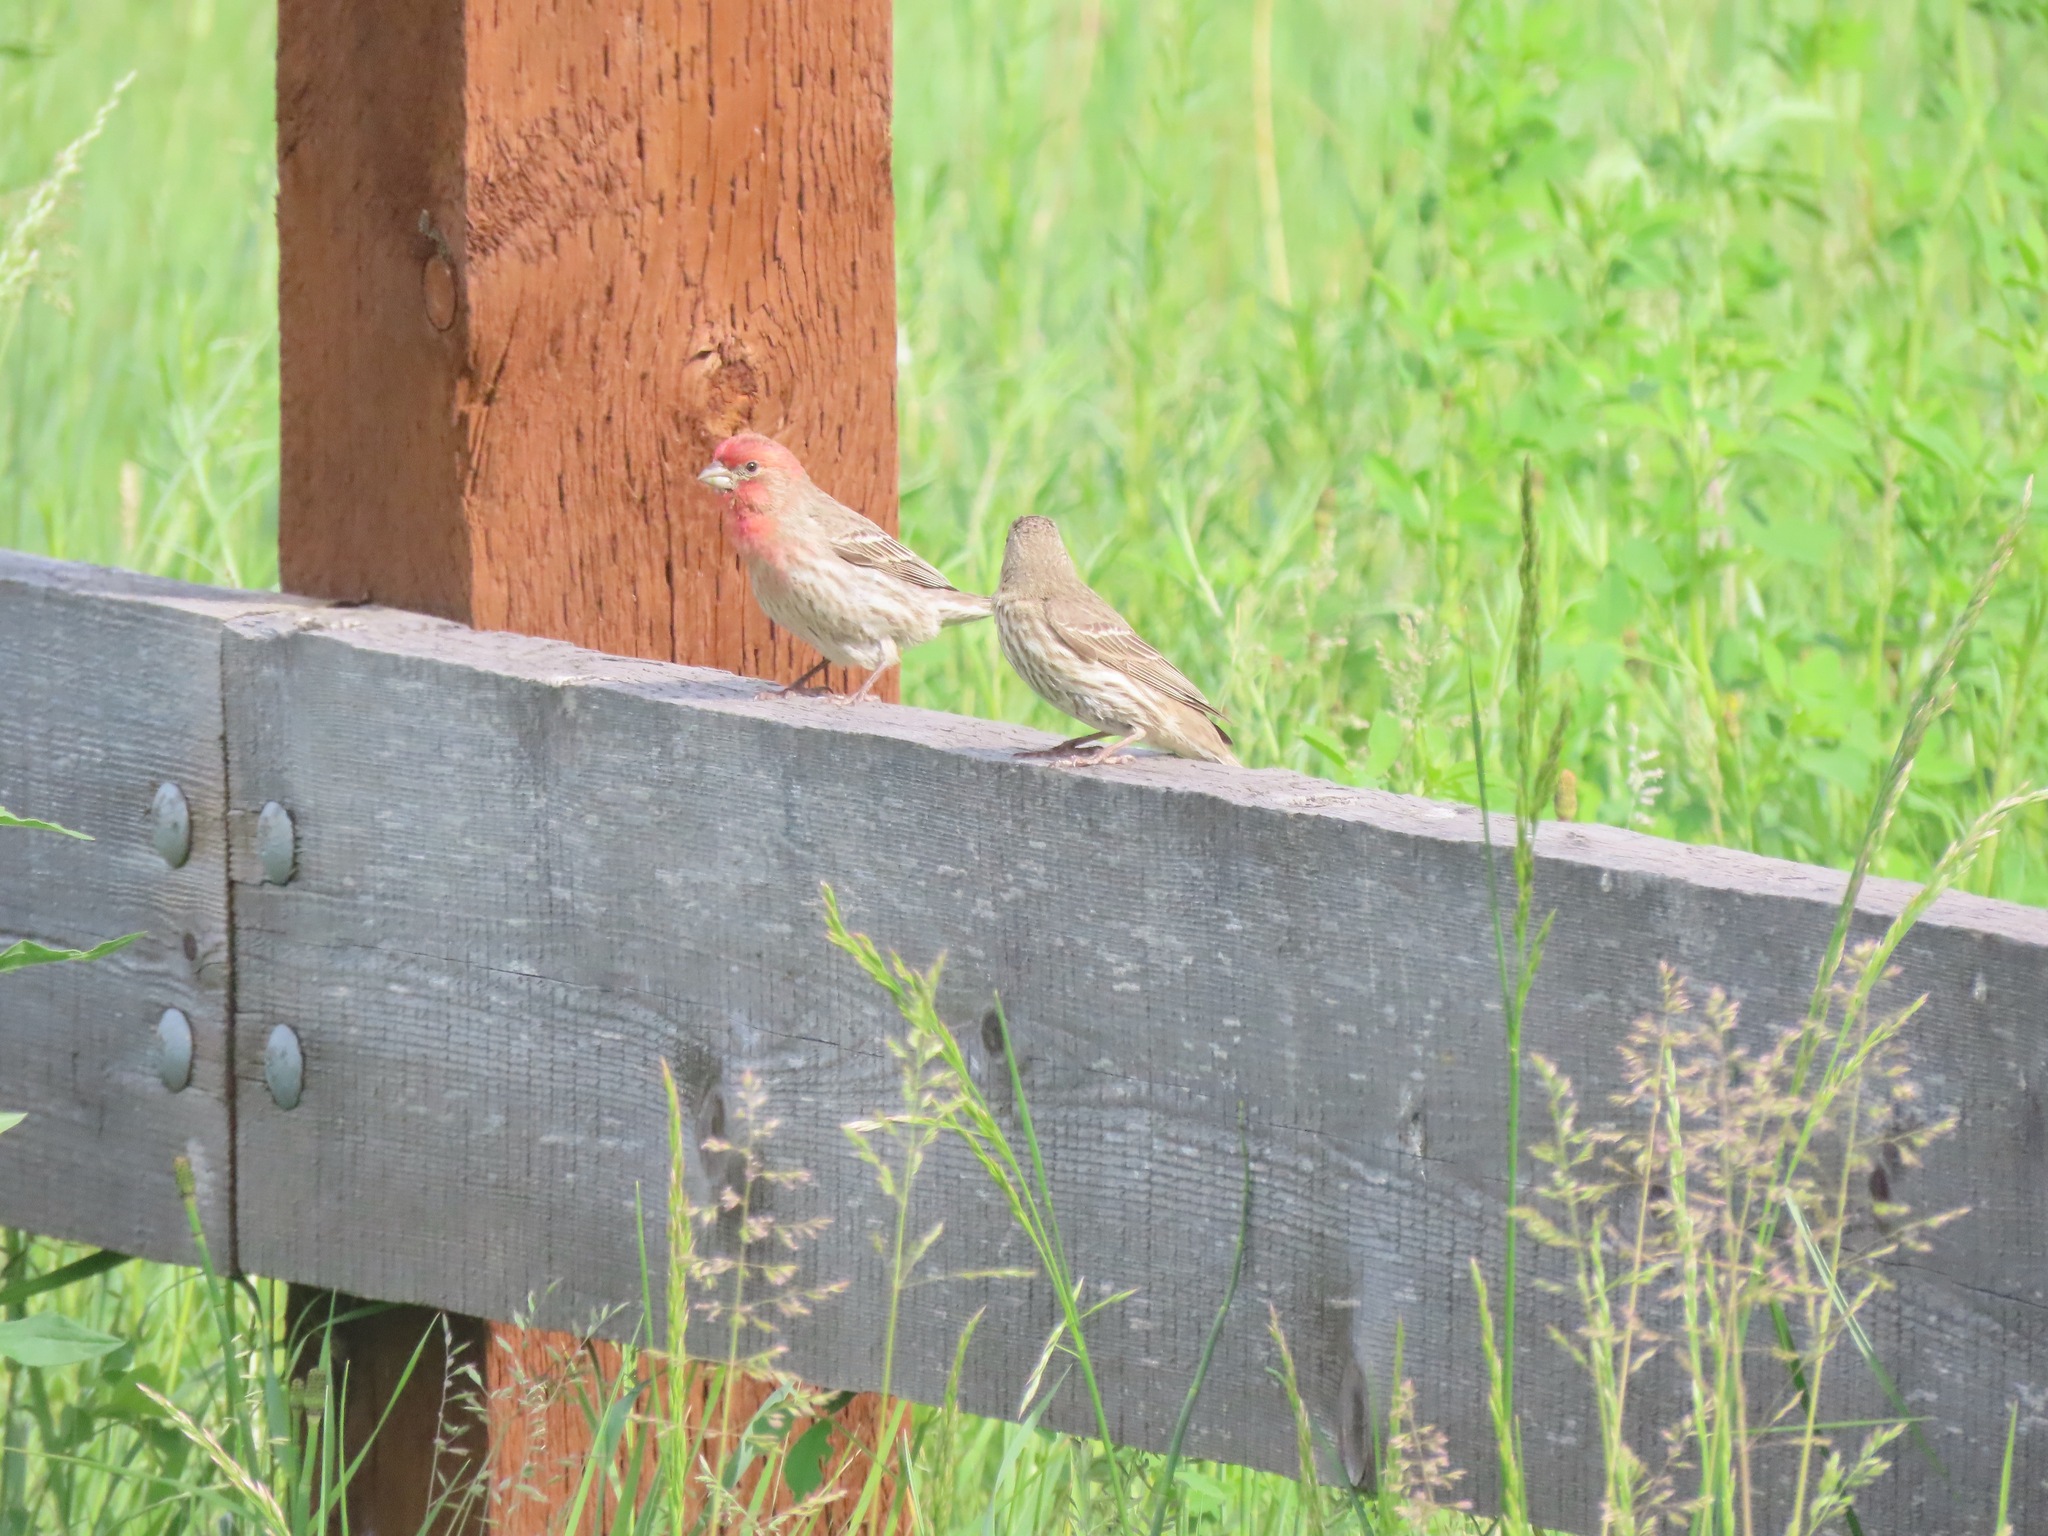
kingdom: Animalia
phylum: Chordata
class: Aves
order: Passeriformes
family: Fringillidae
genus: Haemorhous
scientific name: Haemorhous mexicanus
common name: House finch
